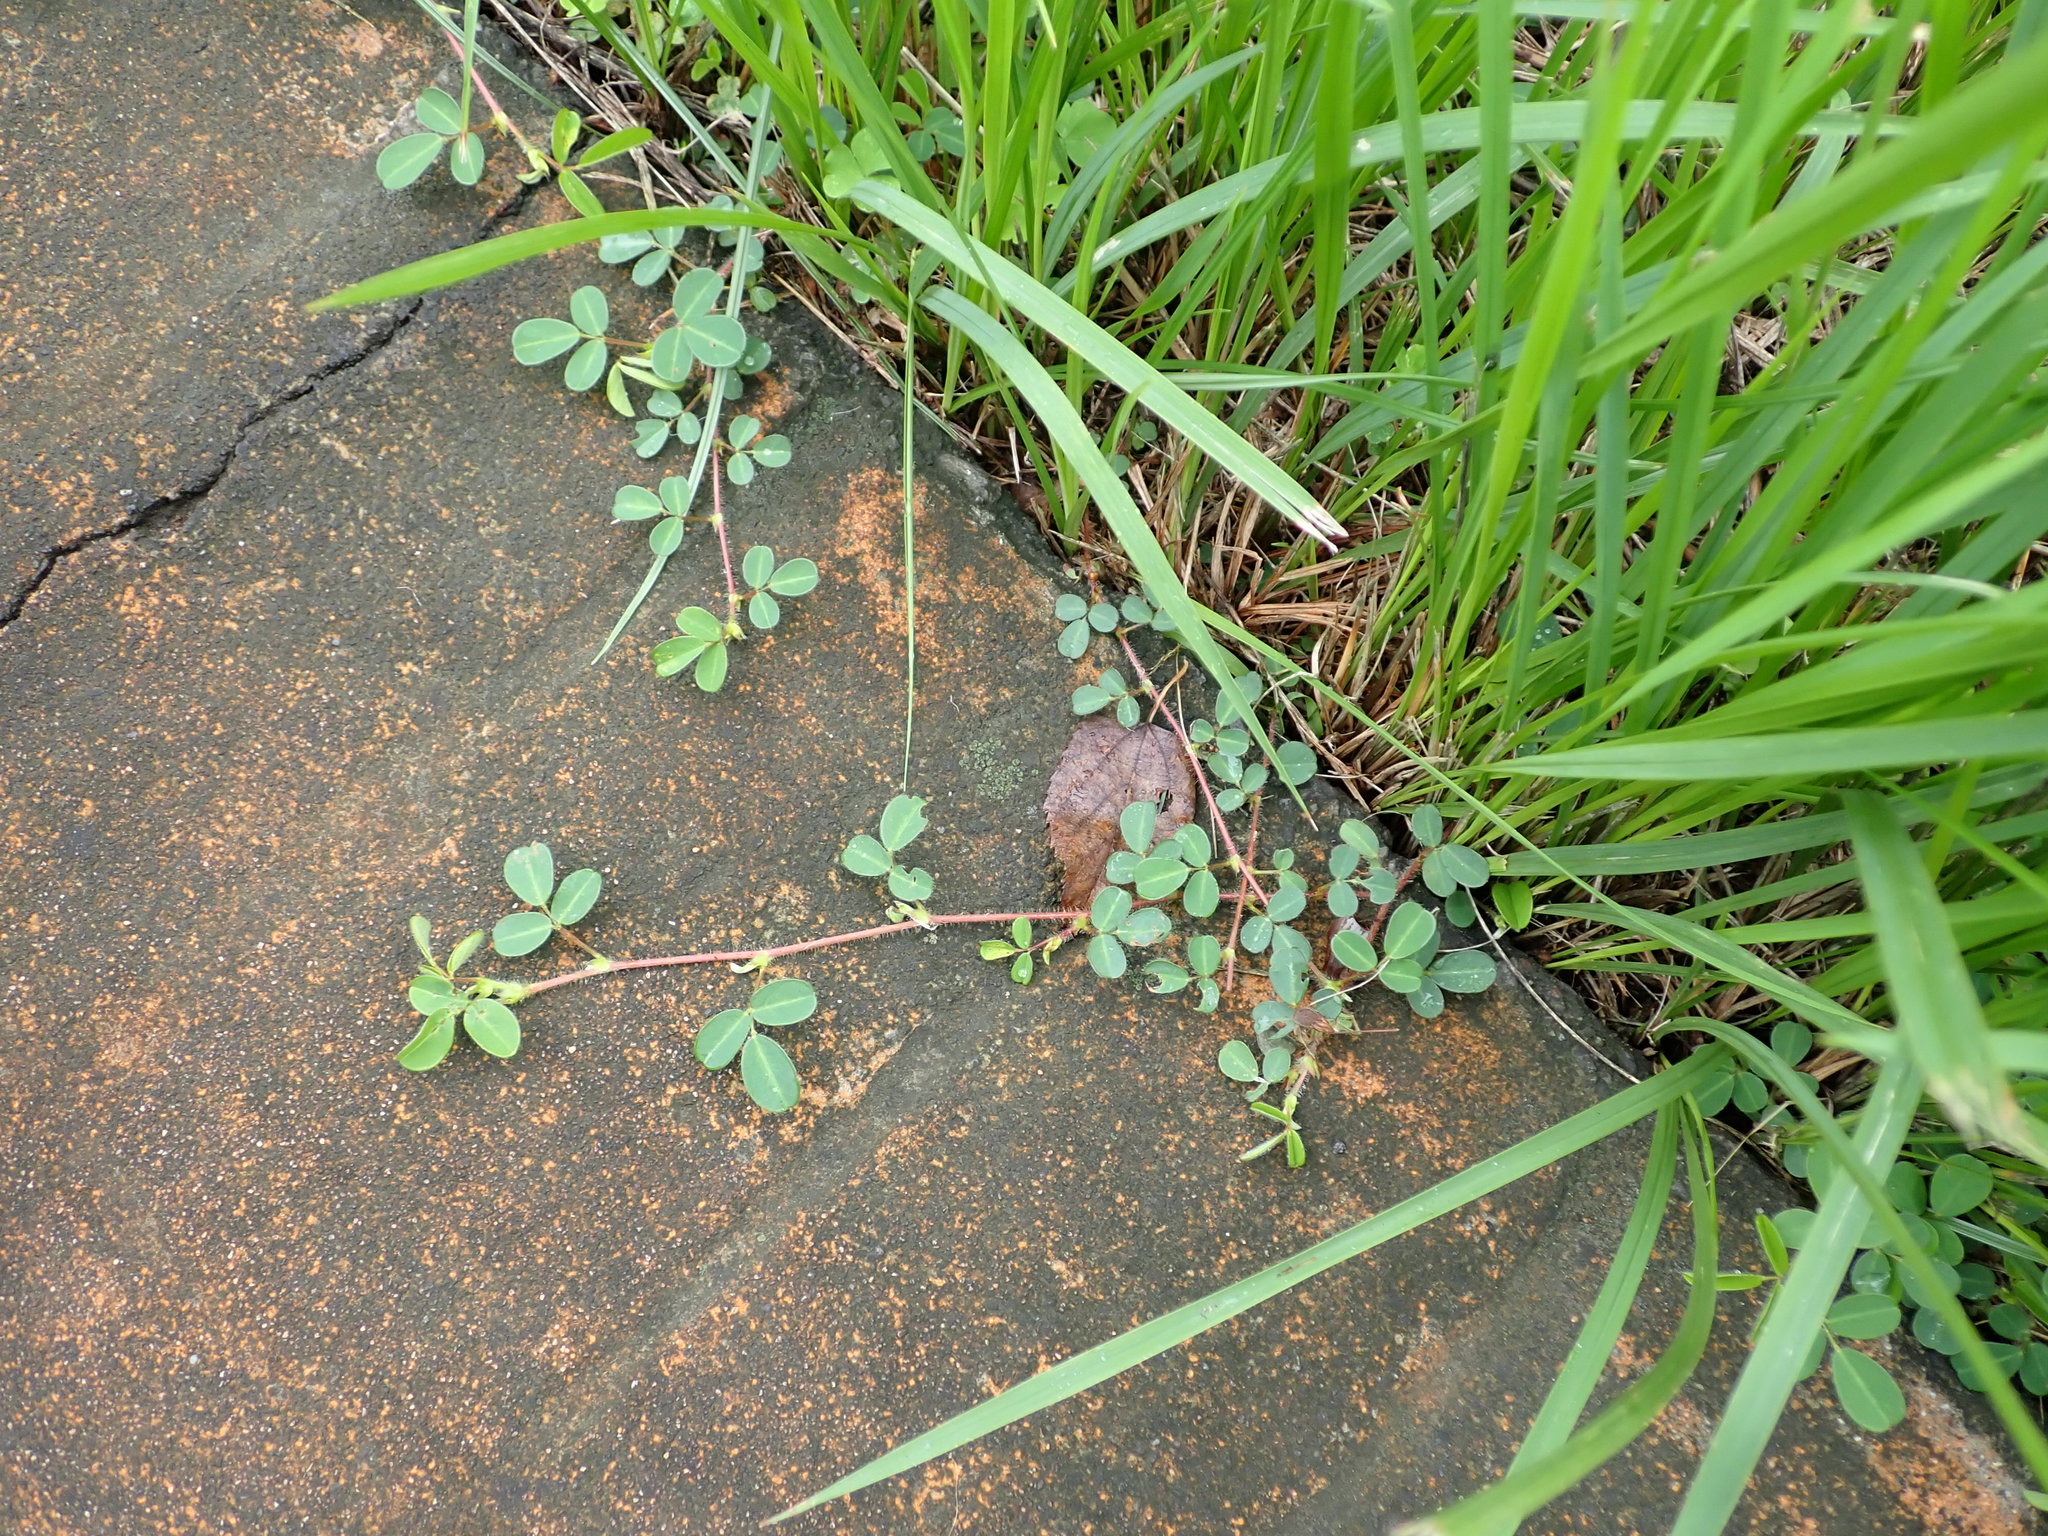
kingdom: Plantae
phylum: Tracheophyta
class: Magnoliopsida
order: Fabales
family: Fabaceae
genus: Grona
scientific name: Grona heterophylla
